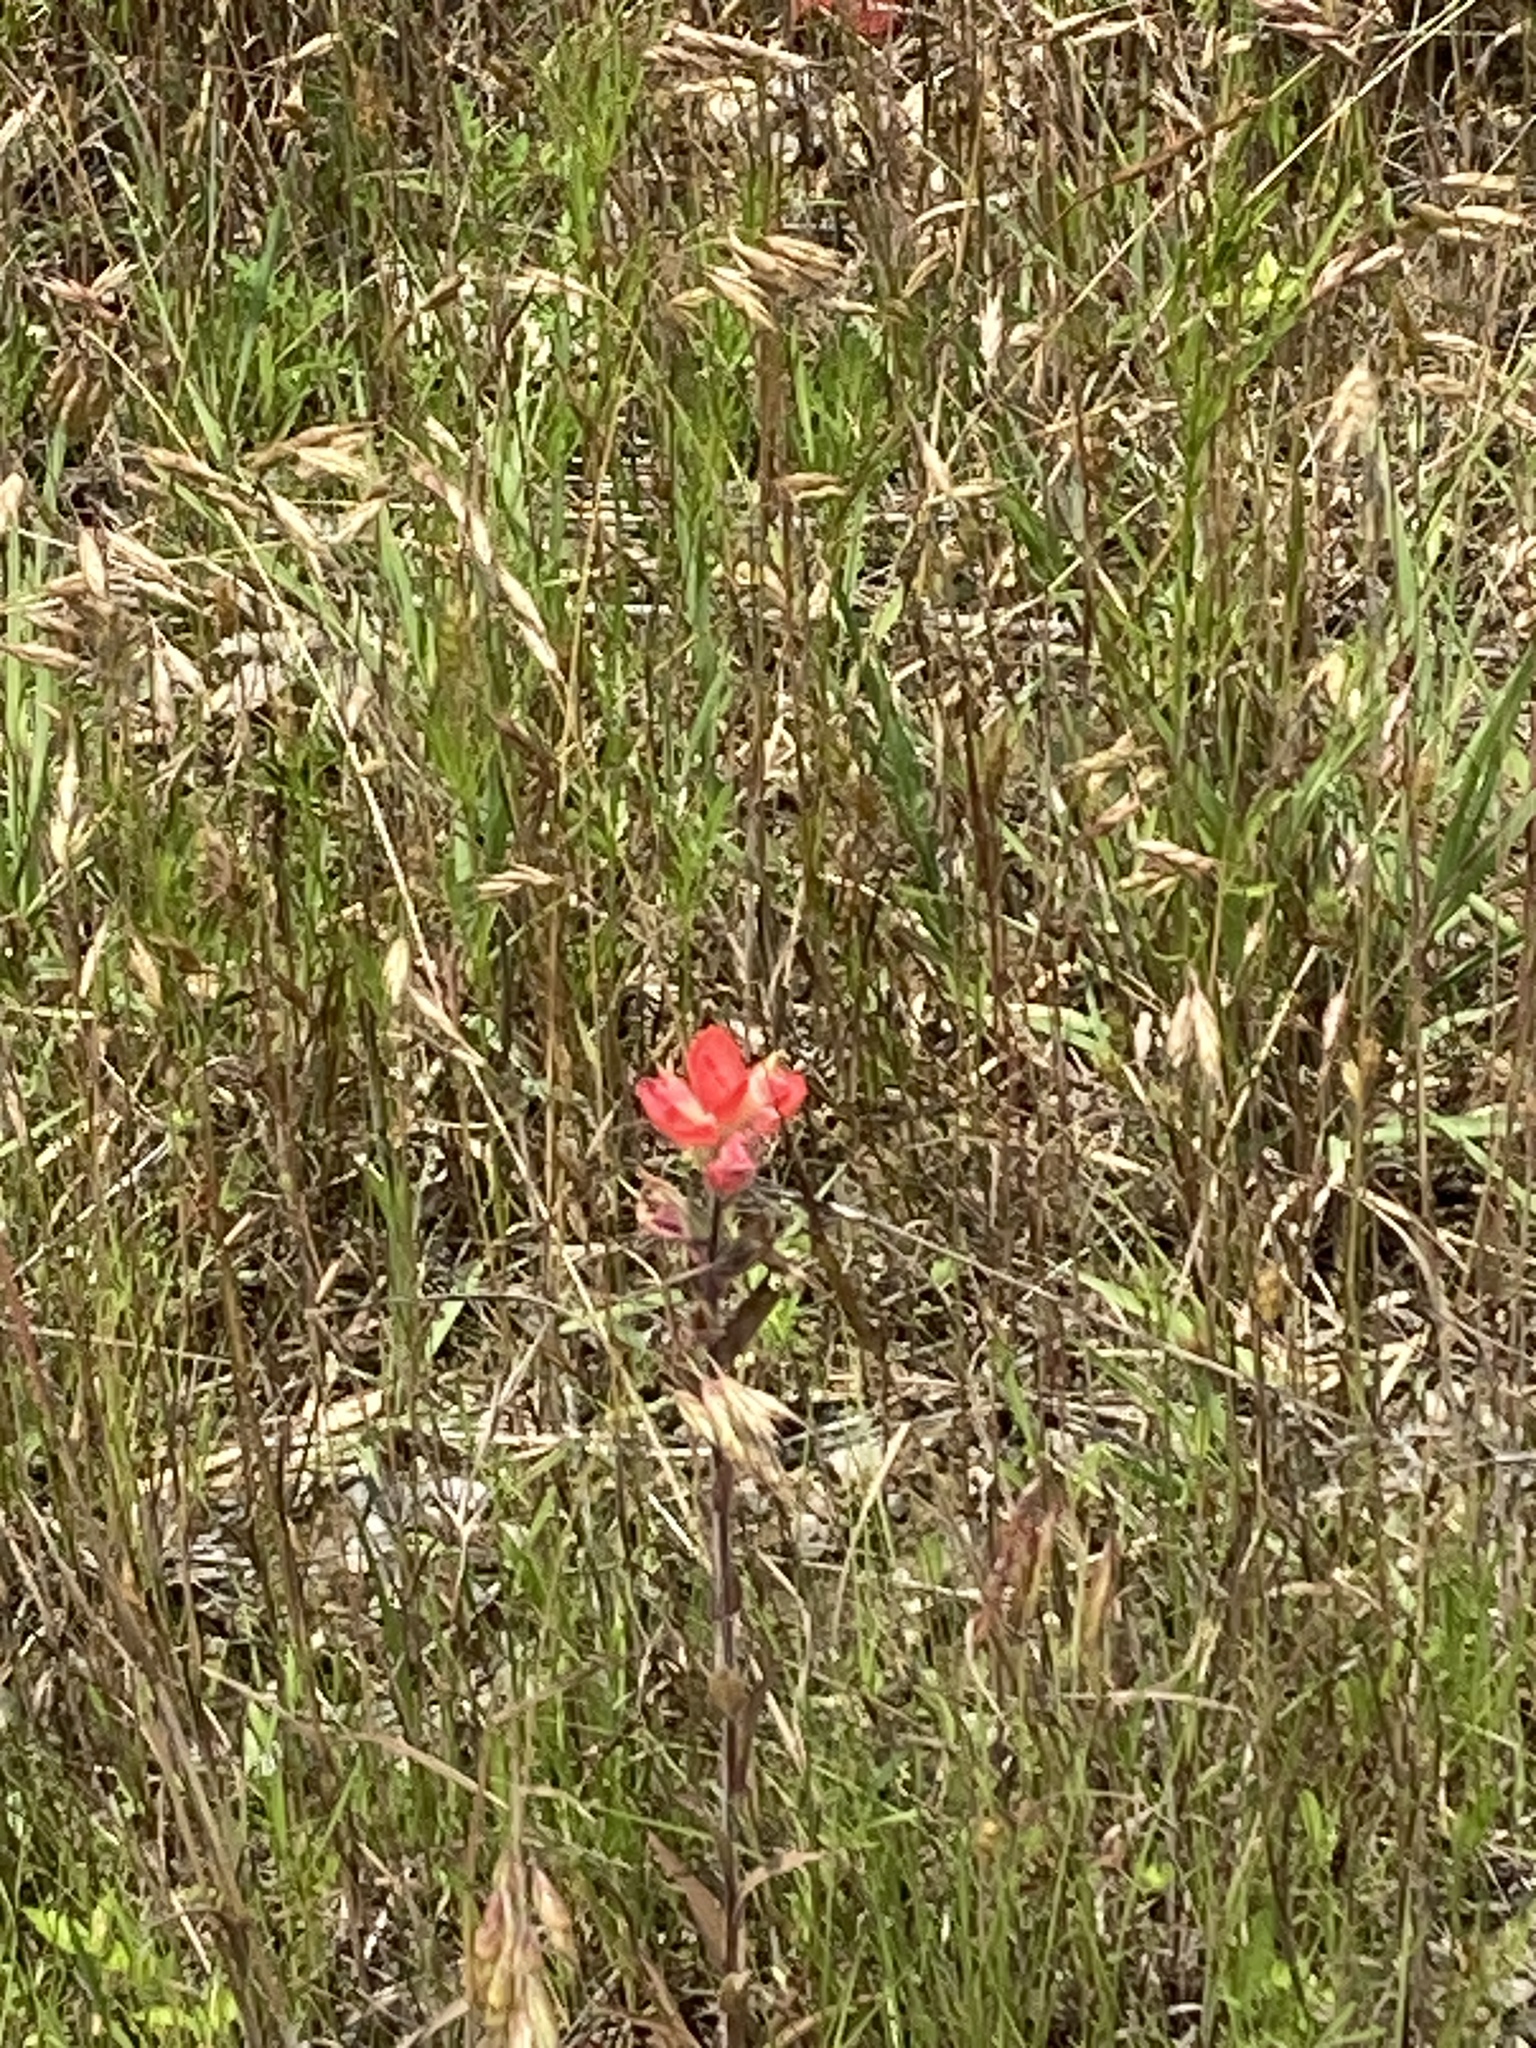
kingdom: Plantae
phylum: Tracheophyta
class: Magnoliopsida
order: Lamiales
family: Orobanchaceae
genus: Castilleja
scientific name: Castilleja indivisa
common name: Texas paintbrush
